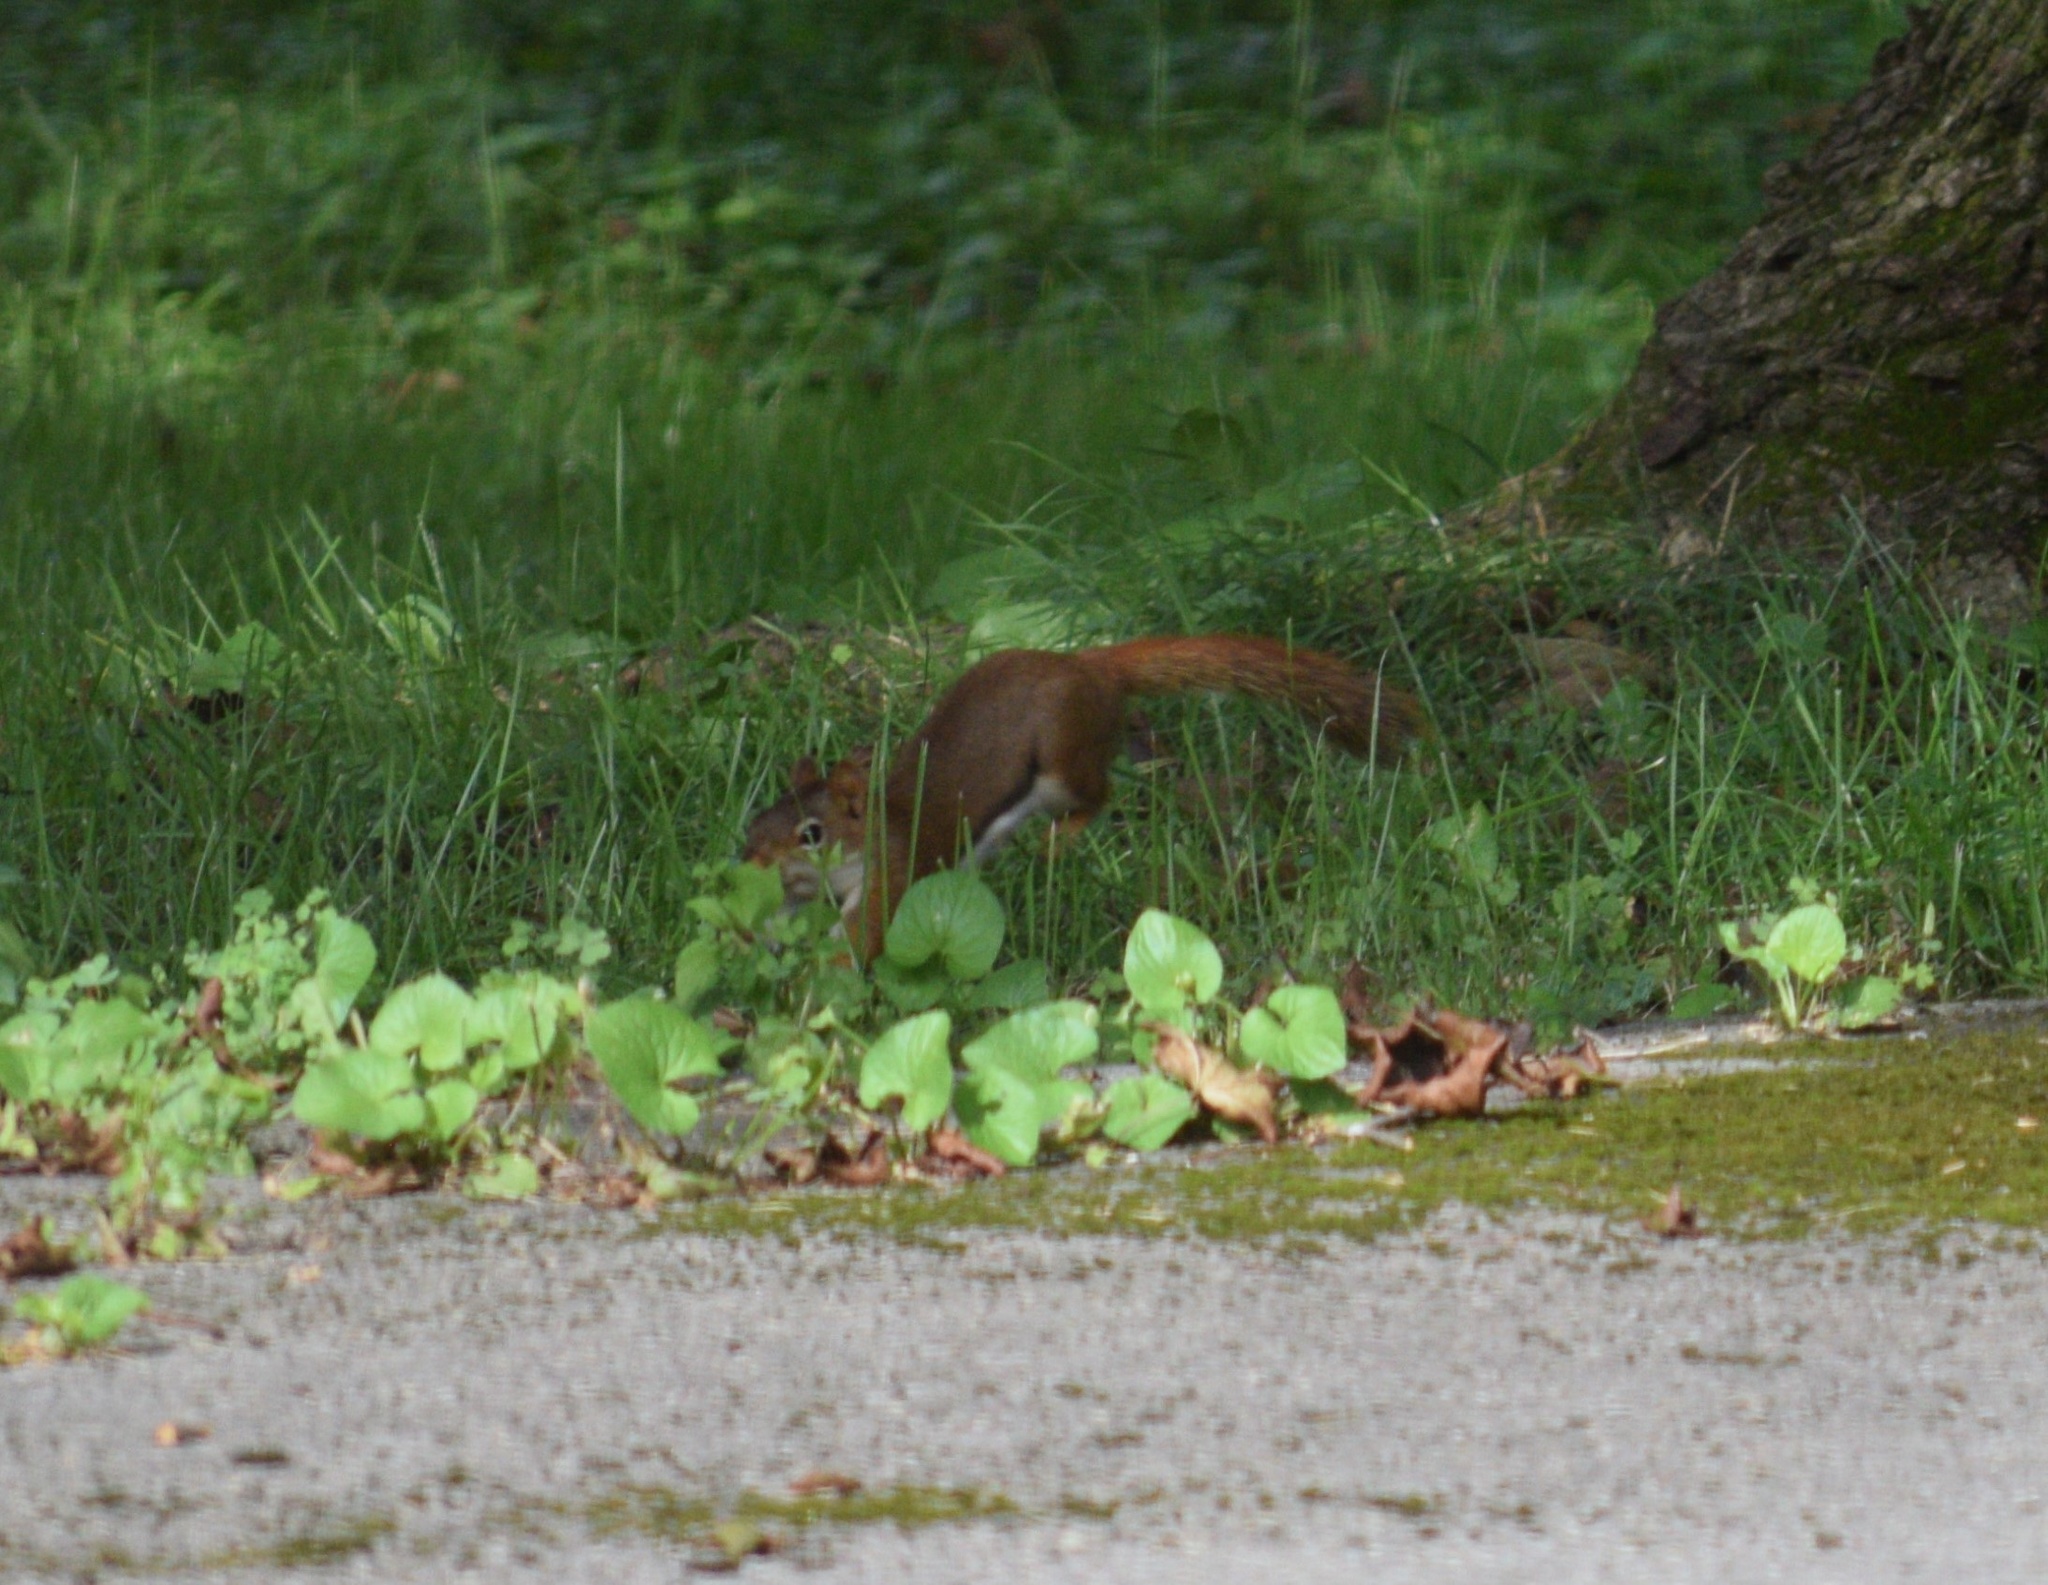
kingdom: Animalia
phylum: Chordata
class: Mammalia
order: Rodentia
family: Sciuridae
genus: Tamiasciurus
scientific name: Tamiasciurus hudsonicus
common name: Red squirrel
